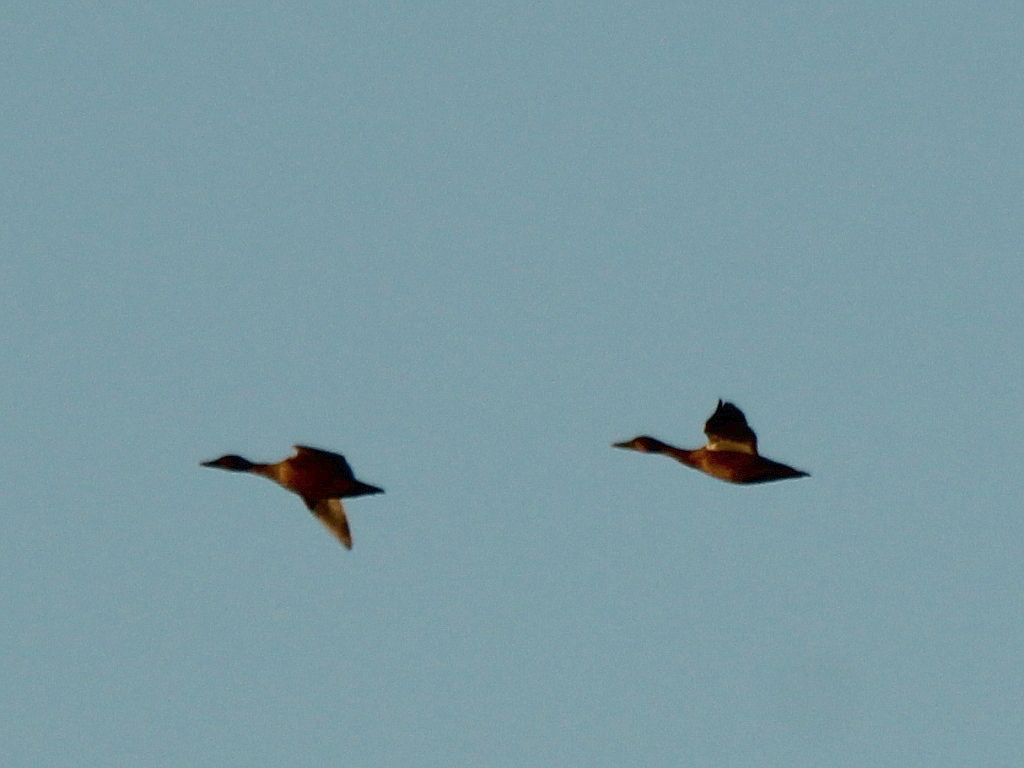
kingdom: Animalia
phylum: Chordata
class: Aves
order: Anseriformes
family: Anatidae
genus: Anas
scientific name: Anas platyrhynchos
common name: Mallard
